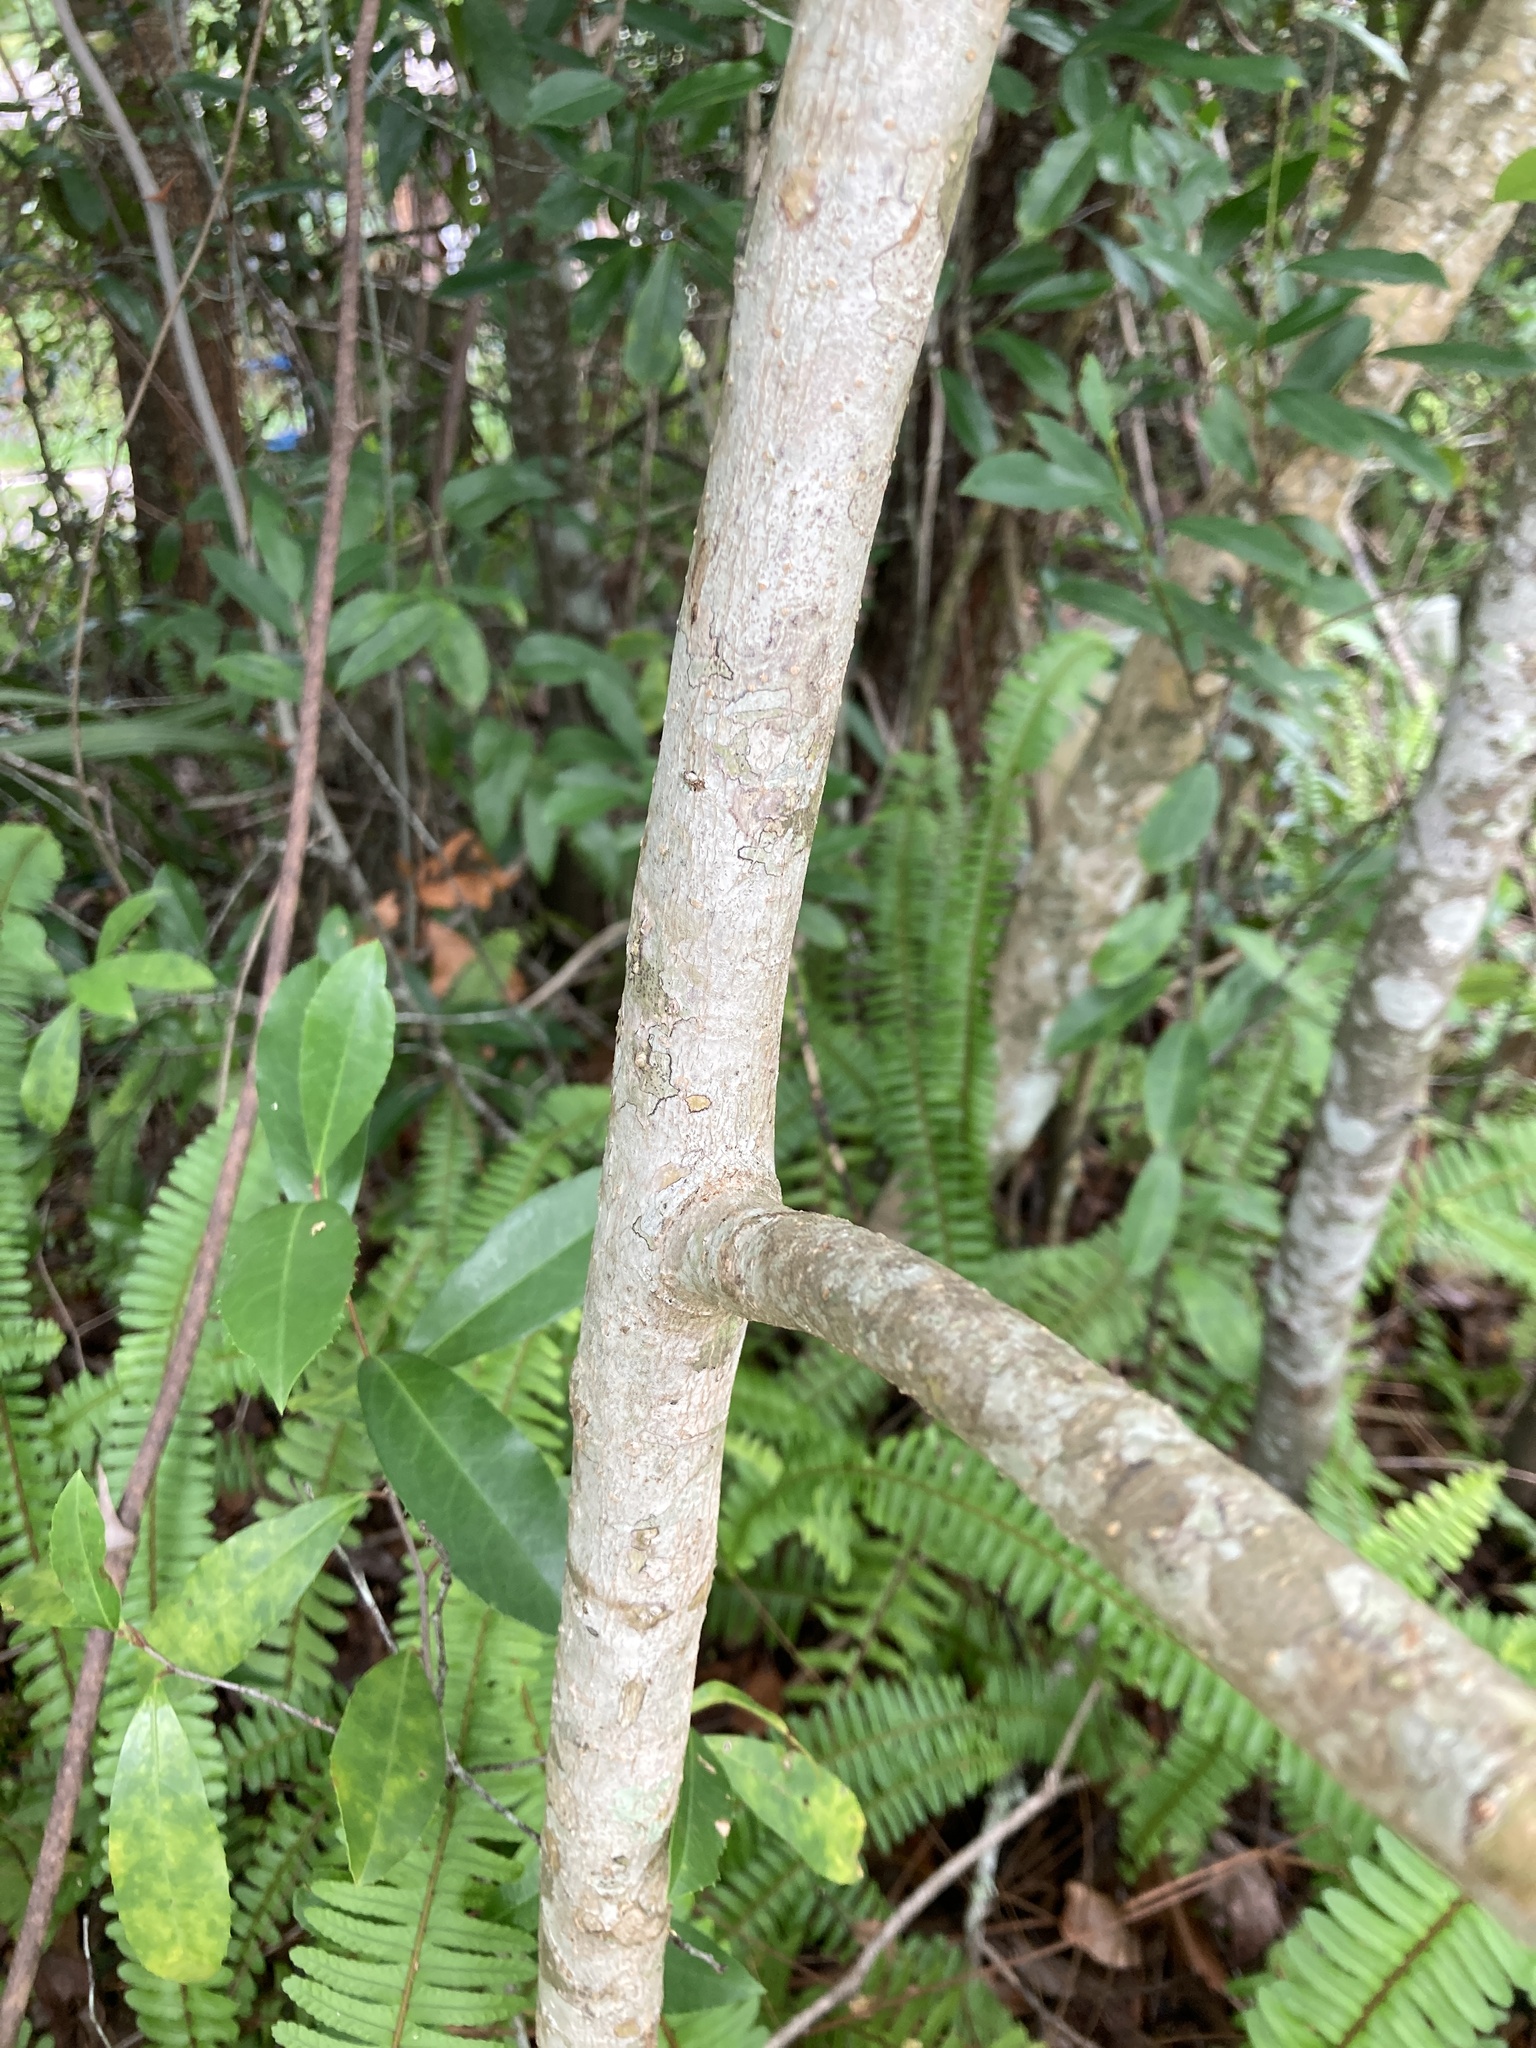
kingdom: Plantae
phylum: Tracheophyta
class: Magnoliopsida
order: Lamiales
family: Oleaceae
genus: Ligustrum
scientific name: Ligustrum lucidum
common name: Glossy privet
